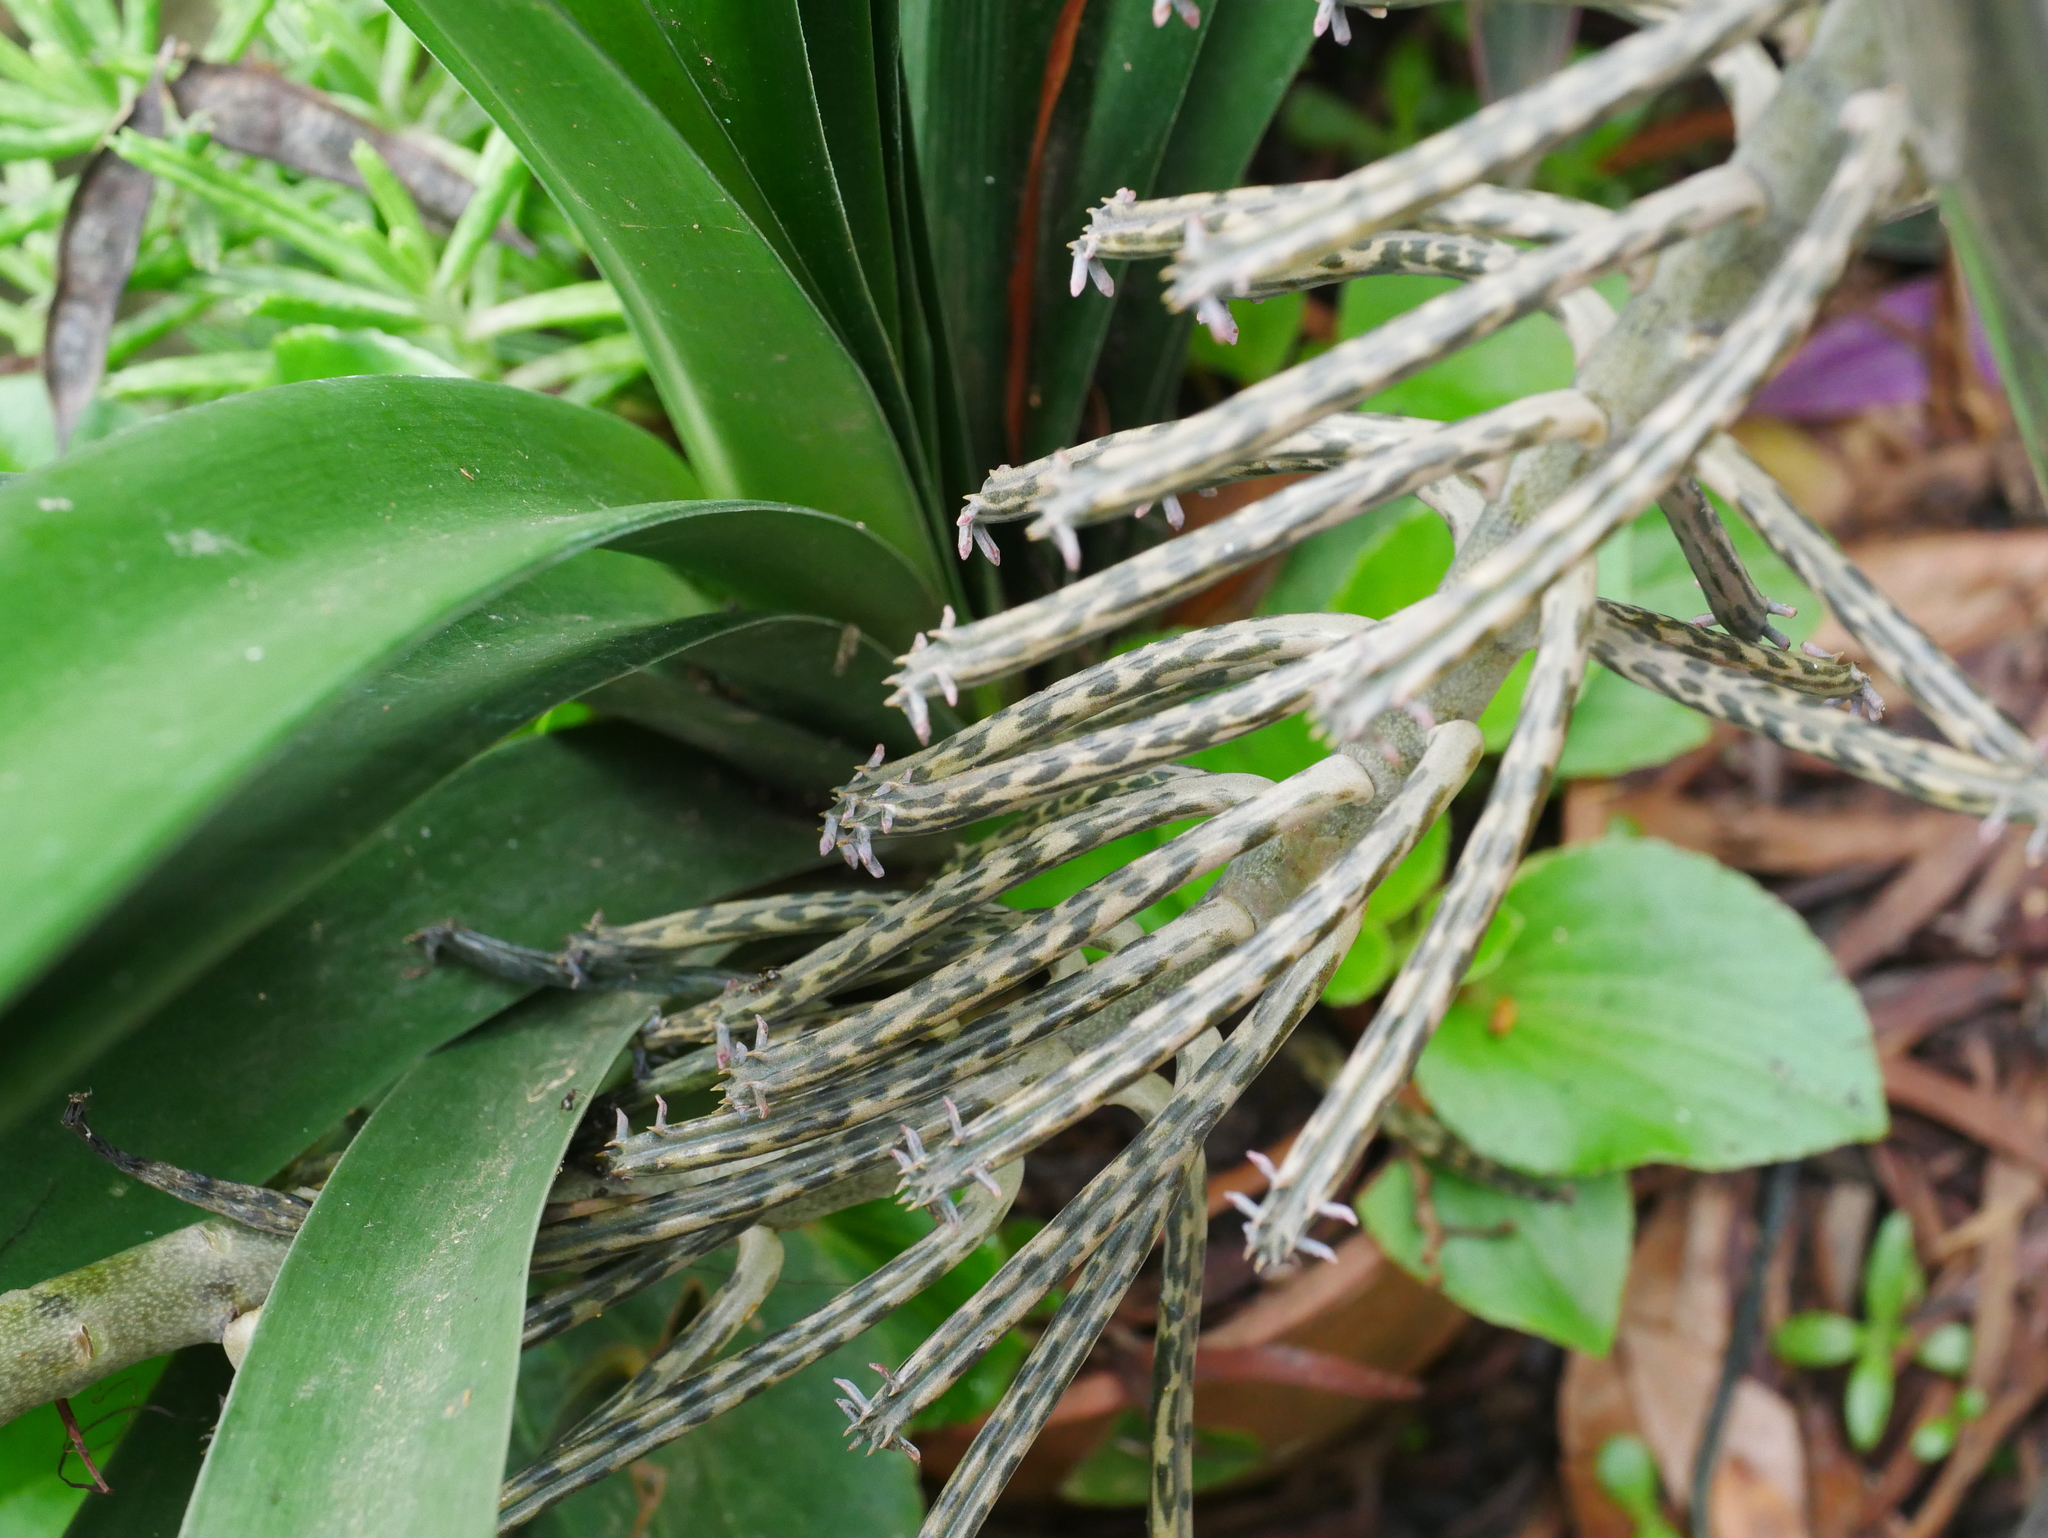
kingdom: Plantae
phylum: Tracheophyta
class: Magnoliopsida
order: Saxifragales
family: Crassulaceae
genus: Kalanchoe
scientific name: Kalanchoe delagoensis
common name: Chandelier plant
